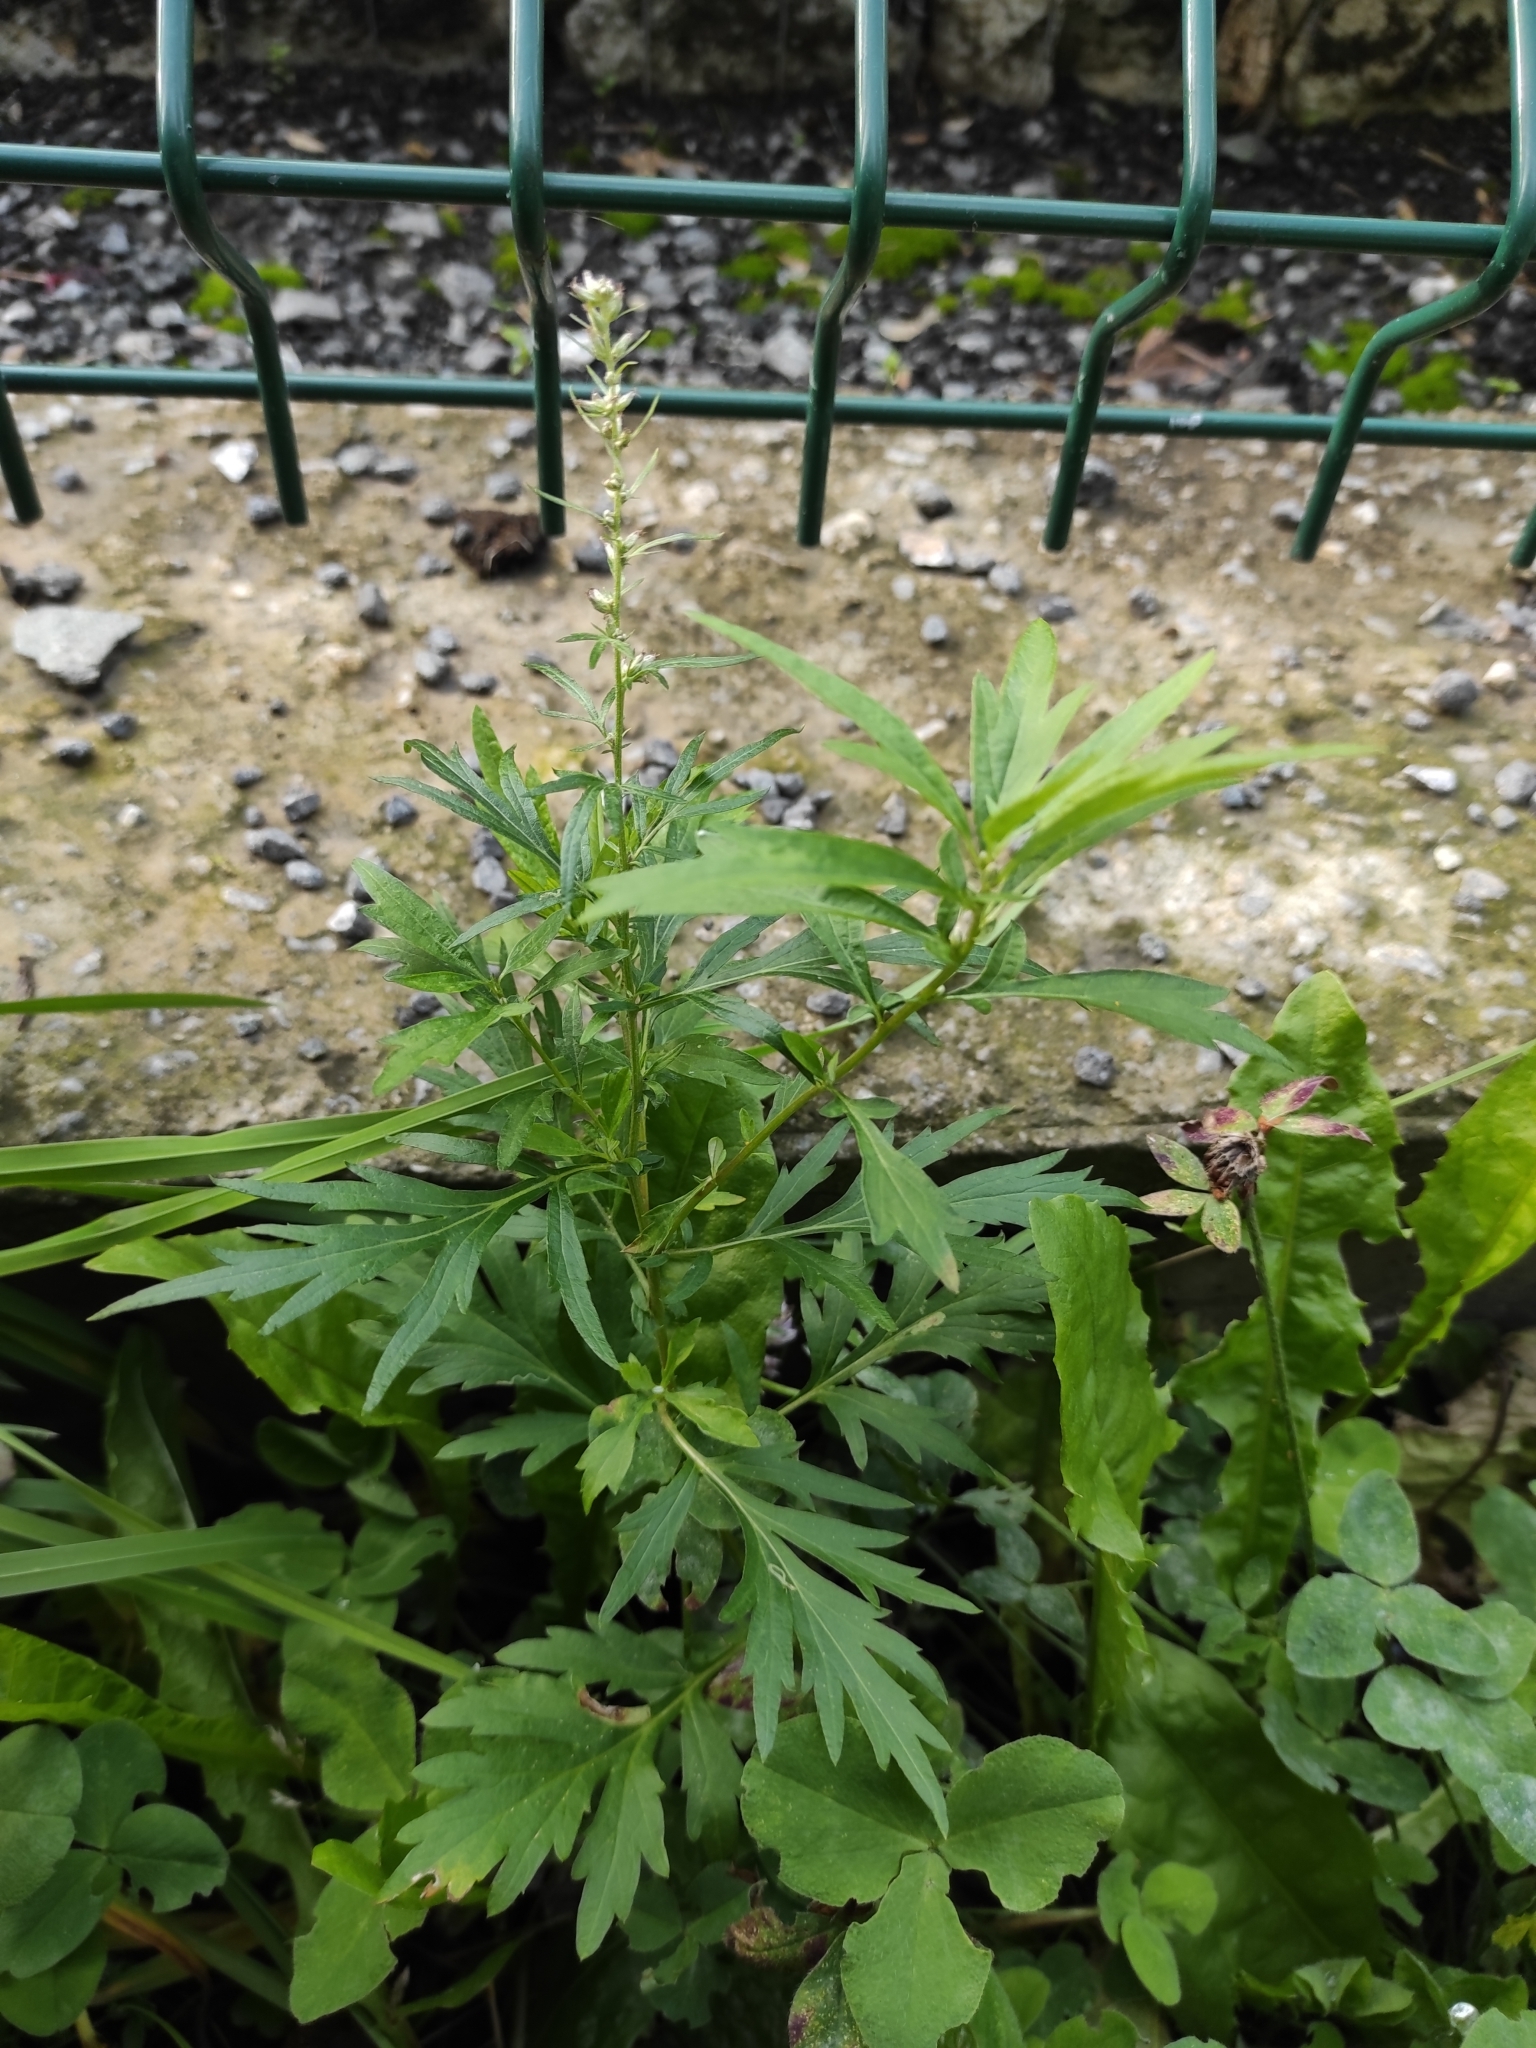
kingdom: Plantae
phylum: Tracheophyta
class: Magnoliopsida
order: Asterales
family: Asteraceae
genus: Artemisia
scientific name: Artemisia vulgaris
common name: Mugwort
